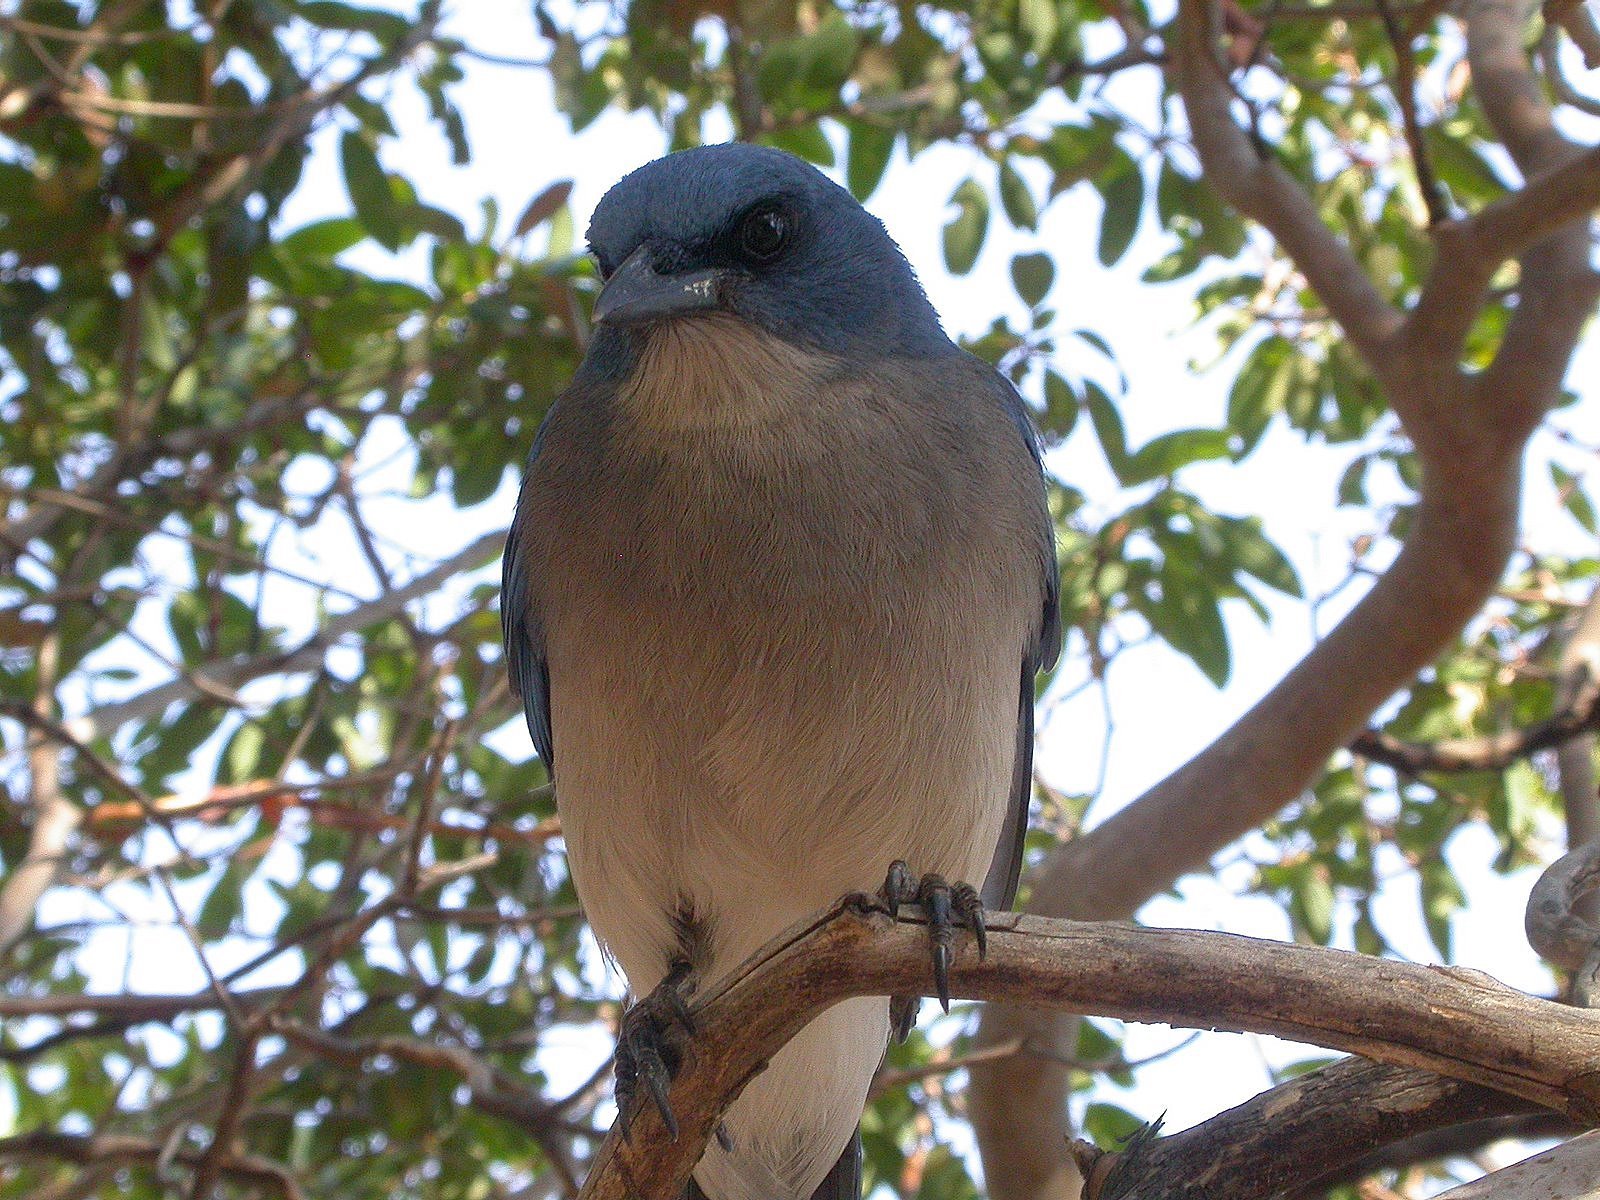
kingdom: Animalia
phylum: Chordata
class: Aves
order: Passeriformes
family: Corvidae
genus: Aphelocoma
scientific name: Aphelocoma wollweberi
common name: Mexican jay
